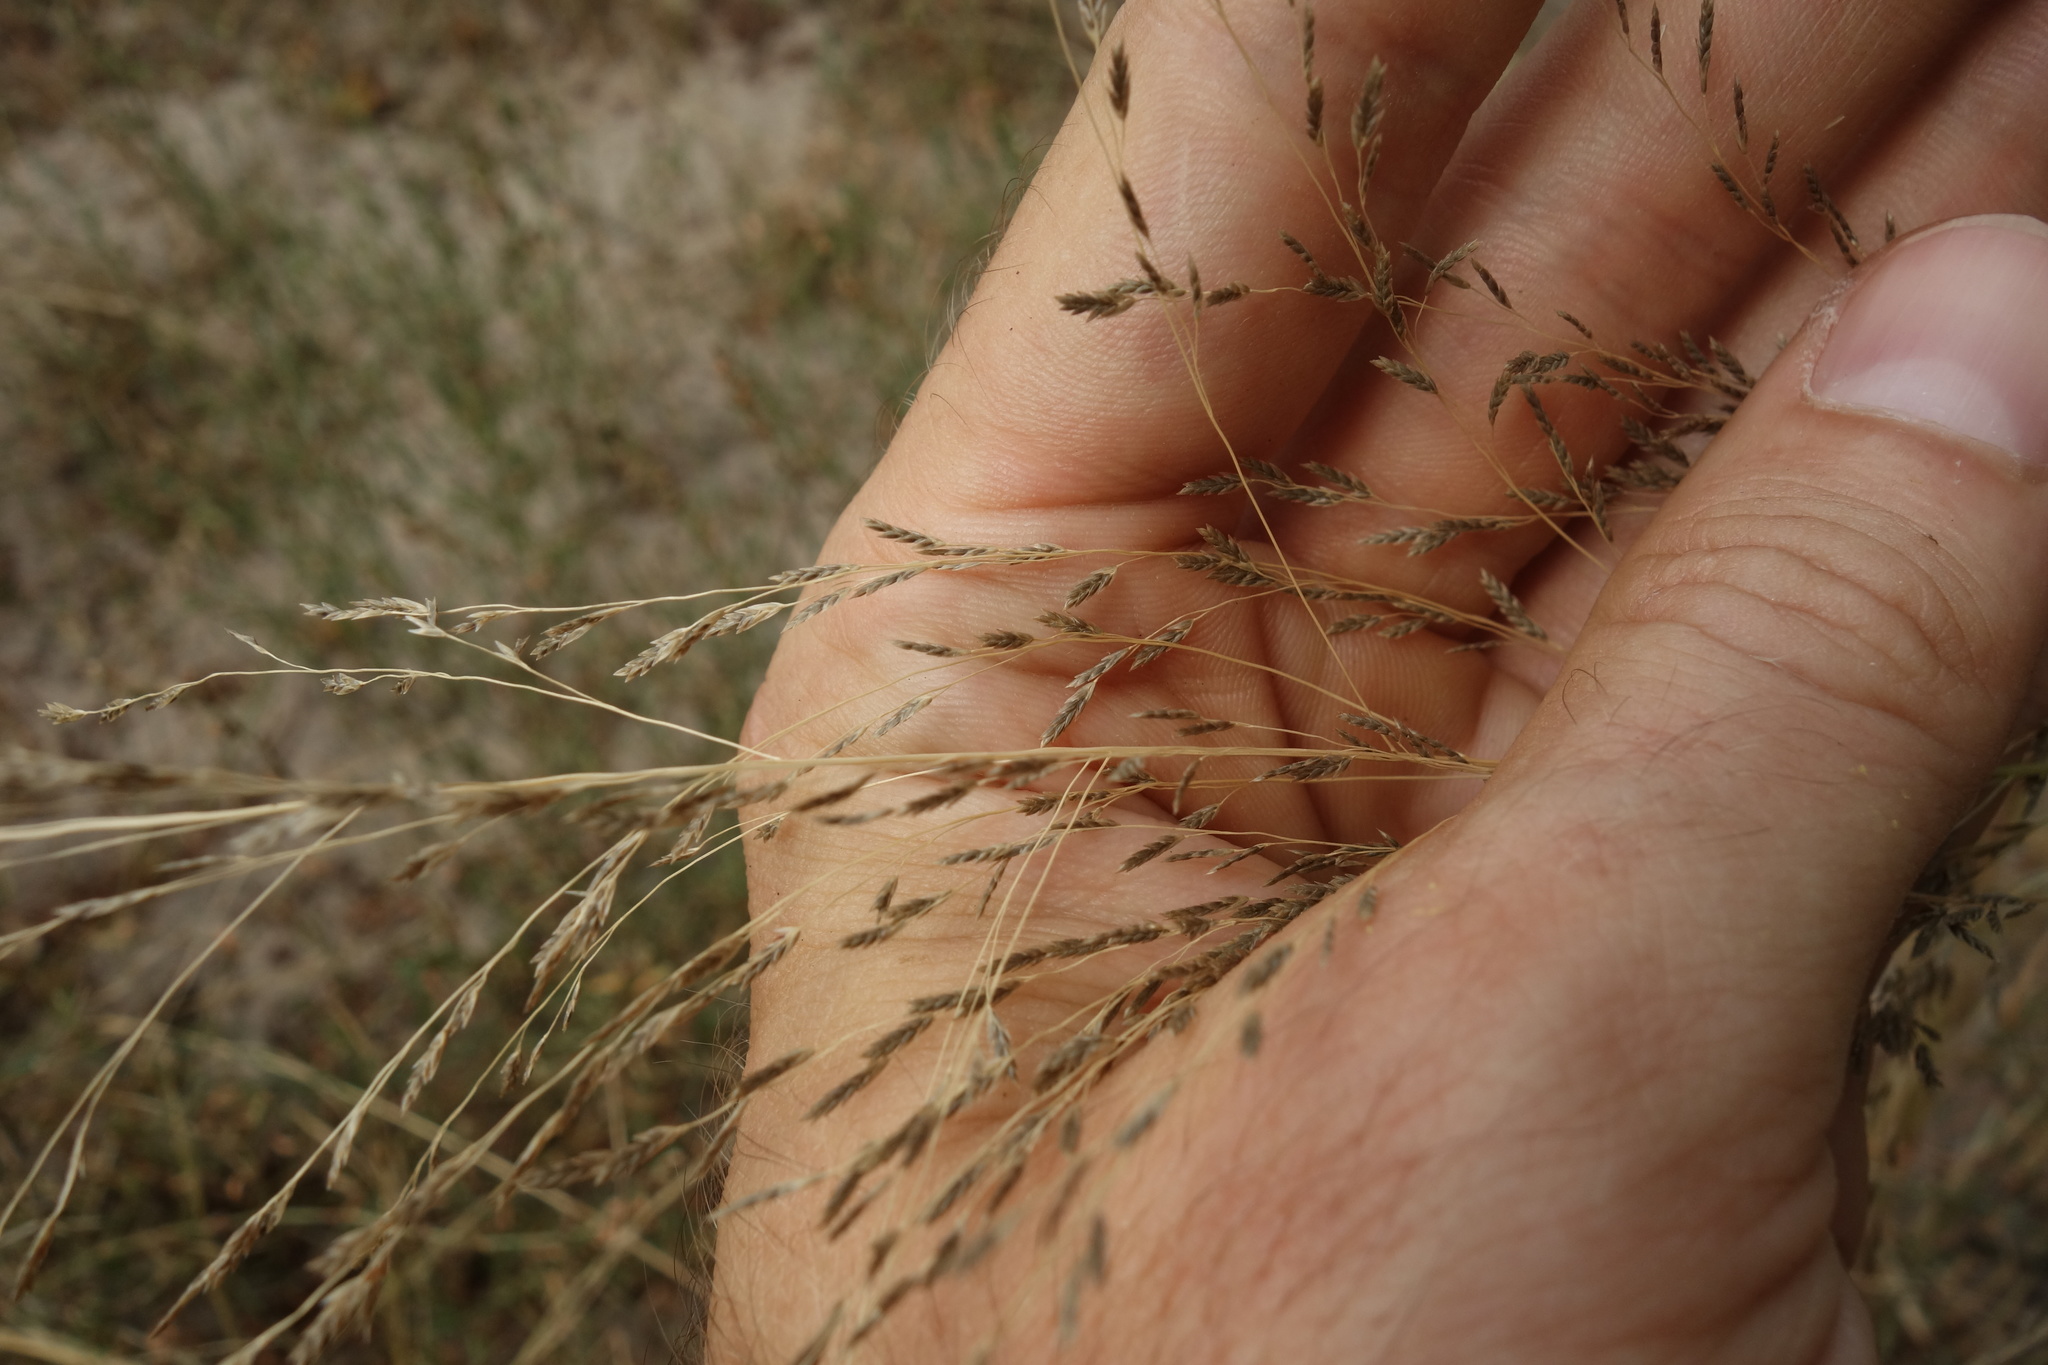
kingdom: Plantae
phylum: Tracheophyta
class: Liliopsida
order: Poales
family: Poaceae
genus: Eragrostis
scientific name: Eragrostis
